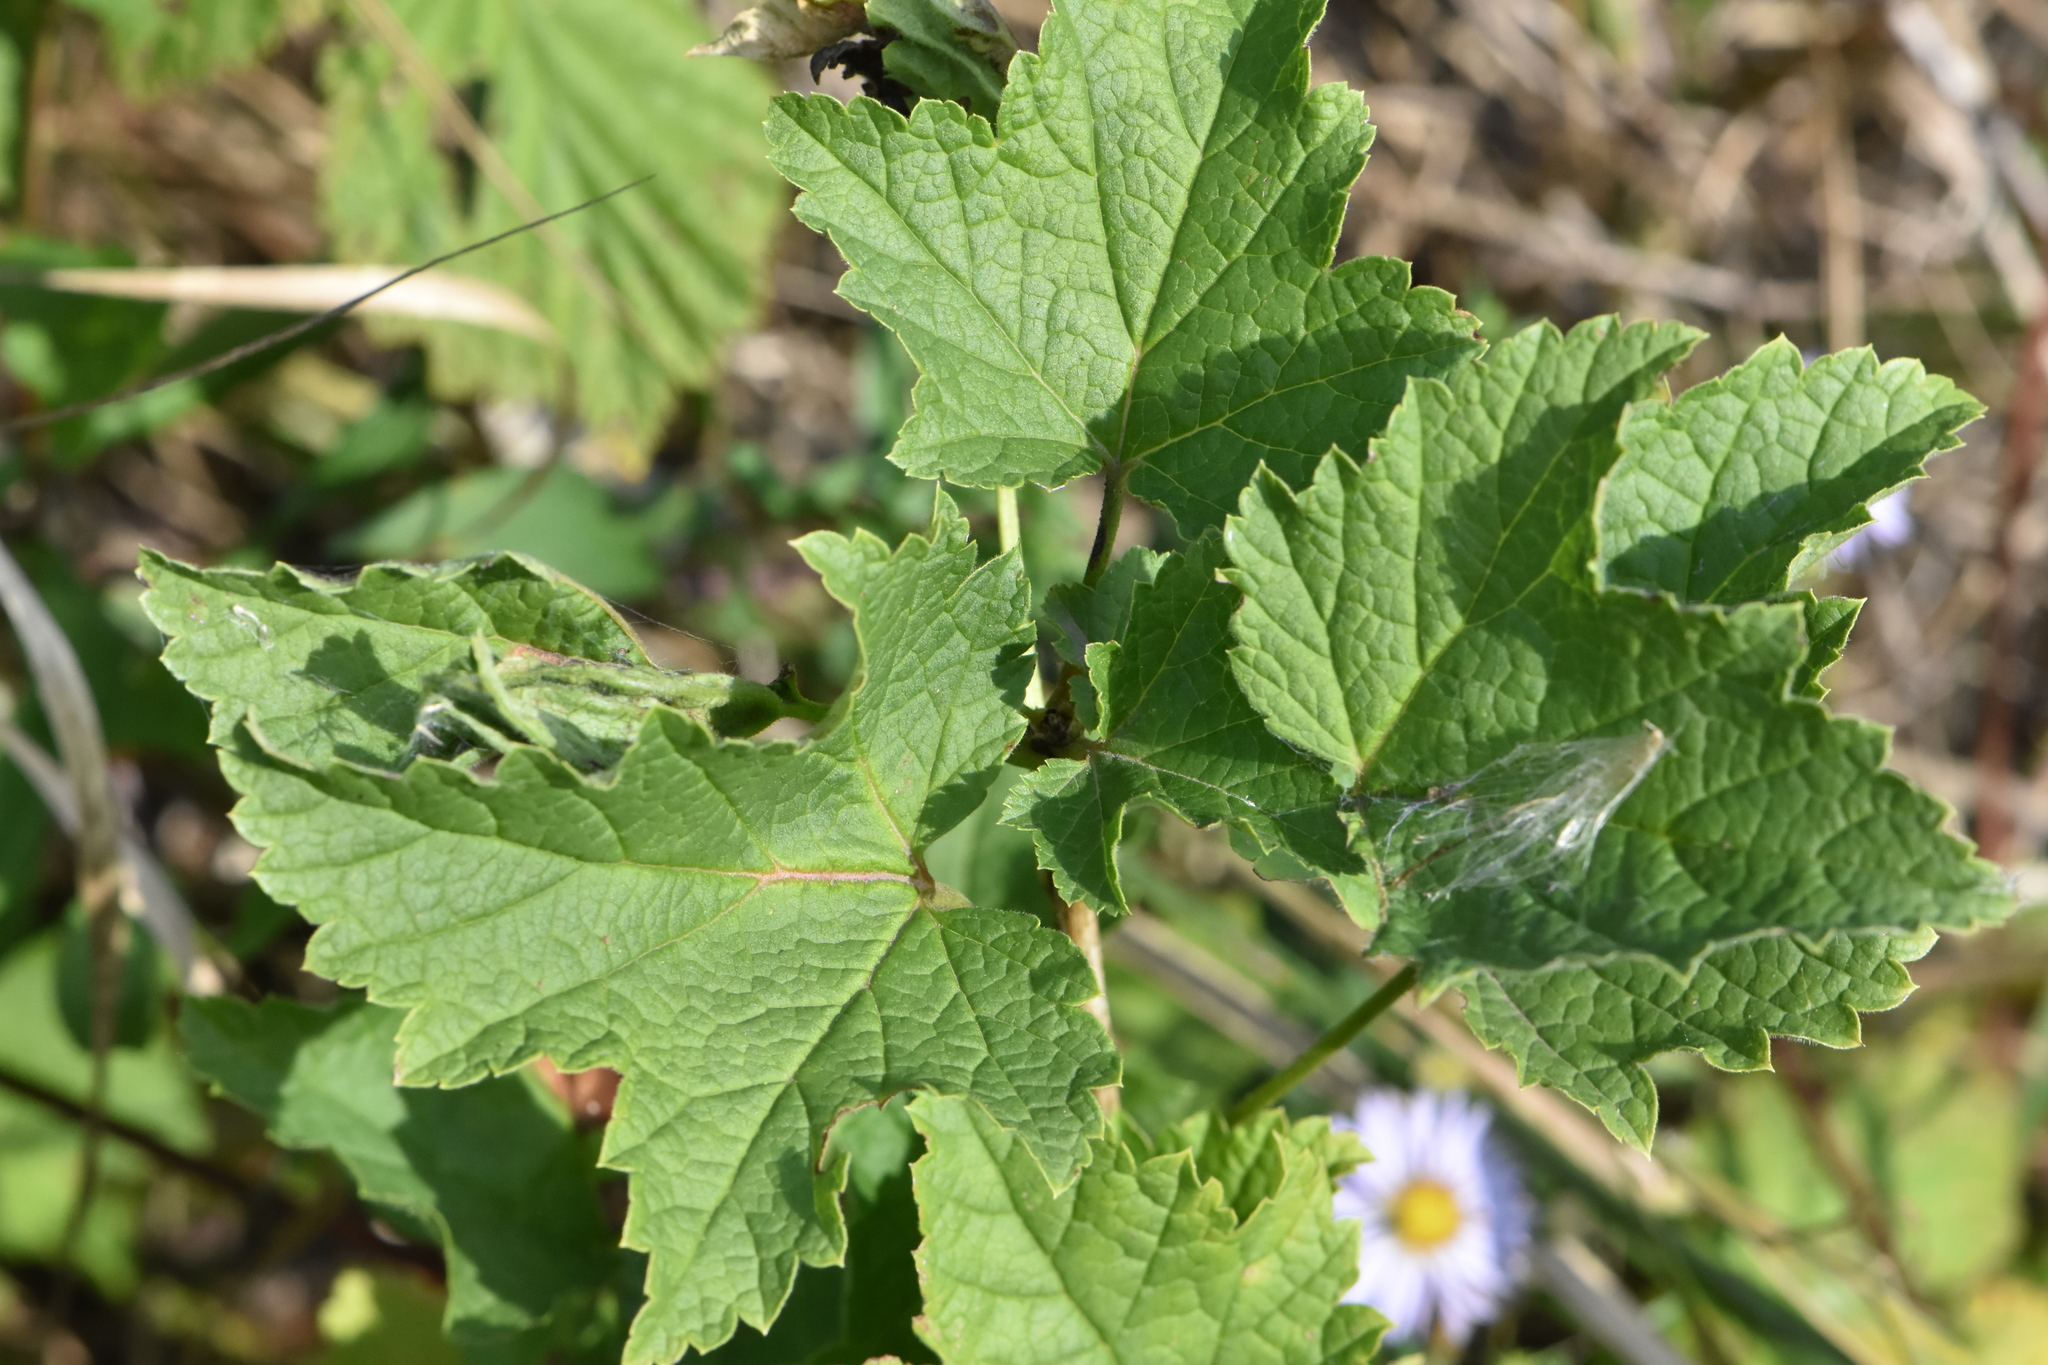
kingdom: Plantae
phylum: Tracheophyta
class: Magnoliopsida
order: Saxifragales
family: Grossulariaceae
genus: Ribes
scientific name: Ribes rubrum
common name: Red currant
